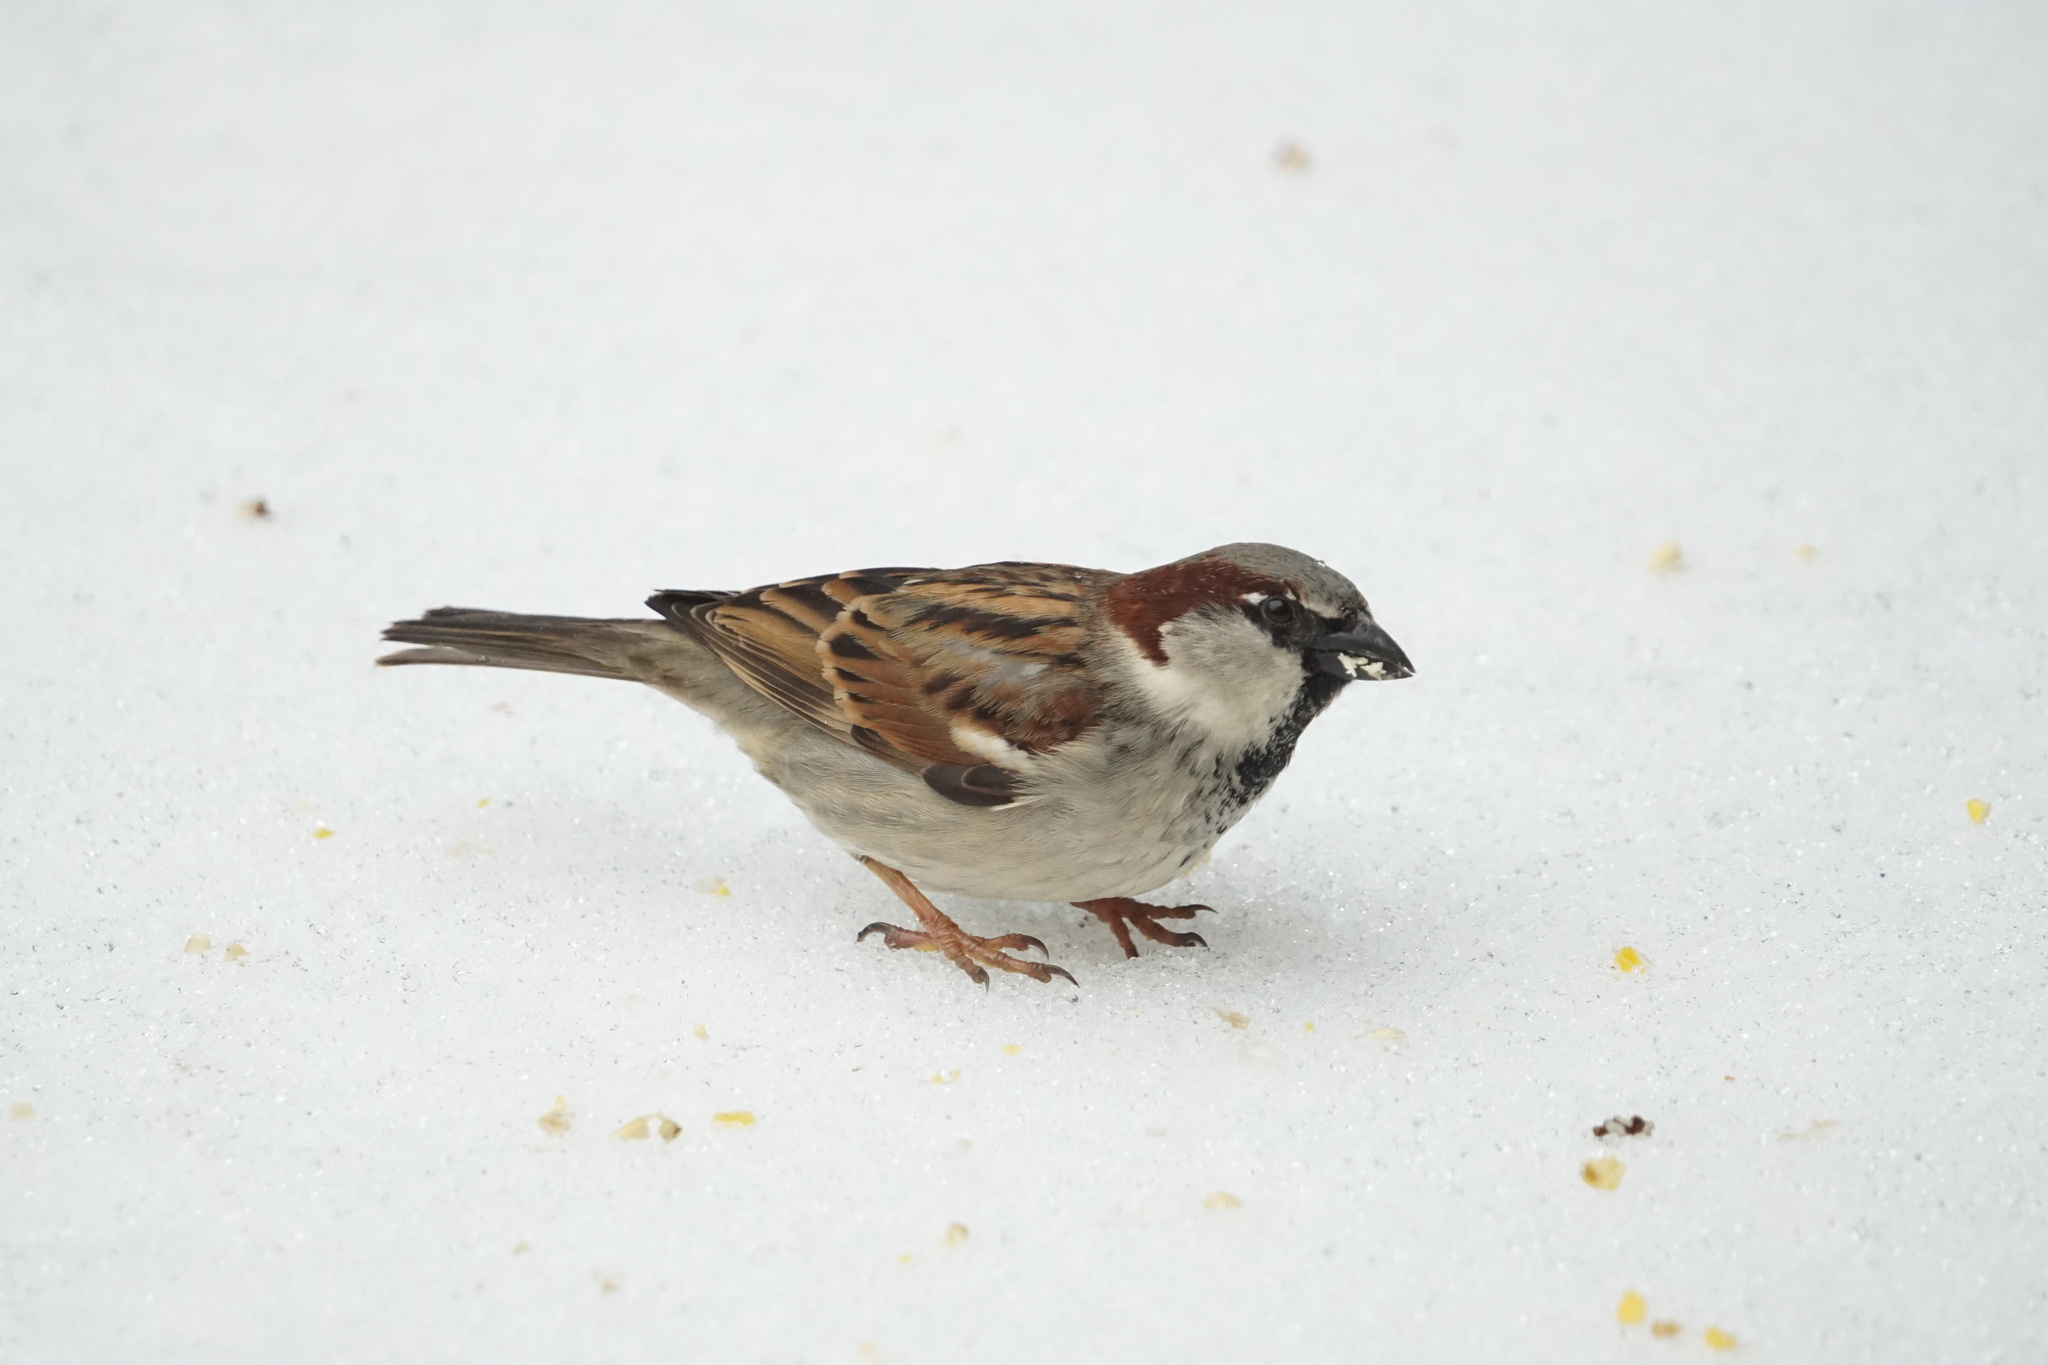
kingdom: Animalia
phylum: Chordata
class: Aves
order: Passeriformes
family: Passeridae
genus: Passer
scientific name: Passer domesticus
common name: House sparrow
